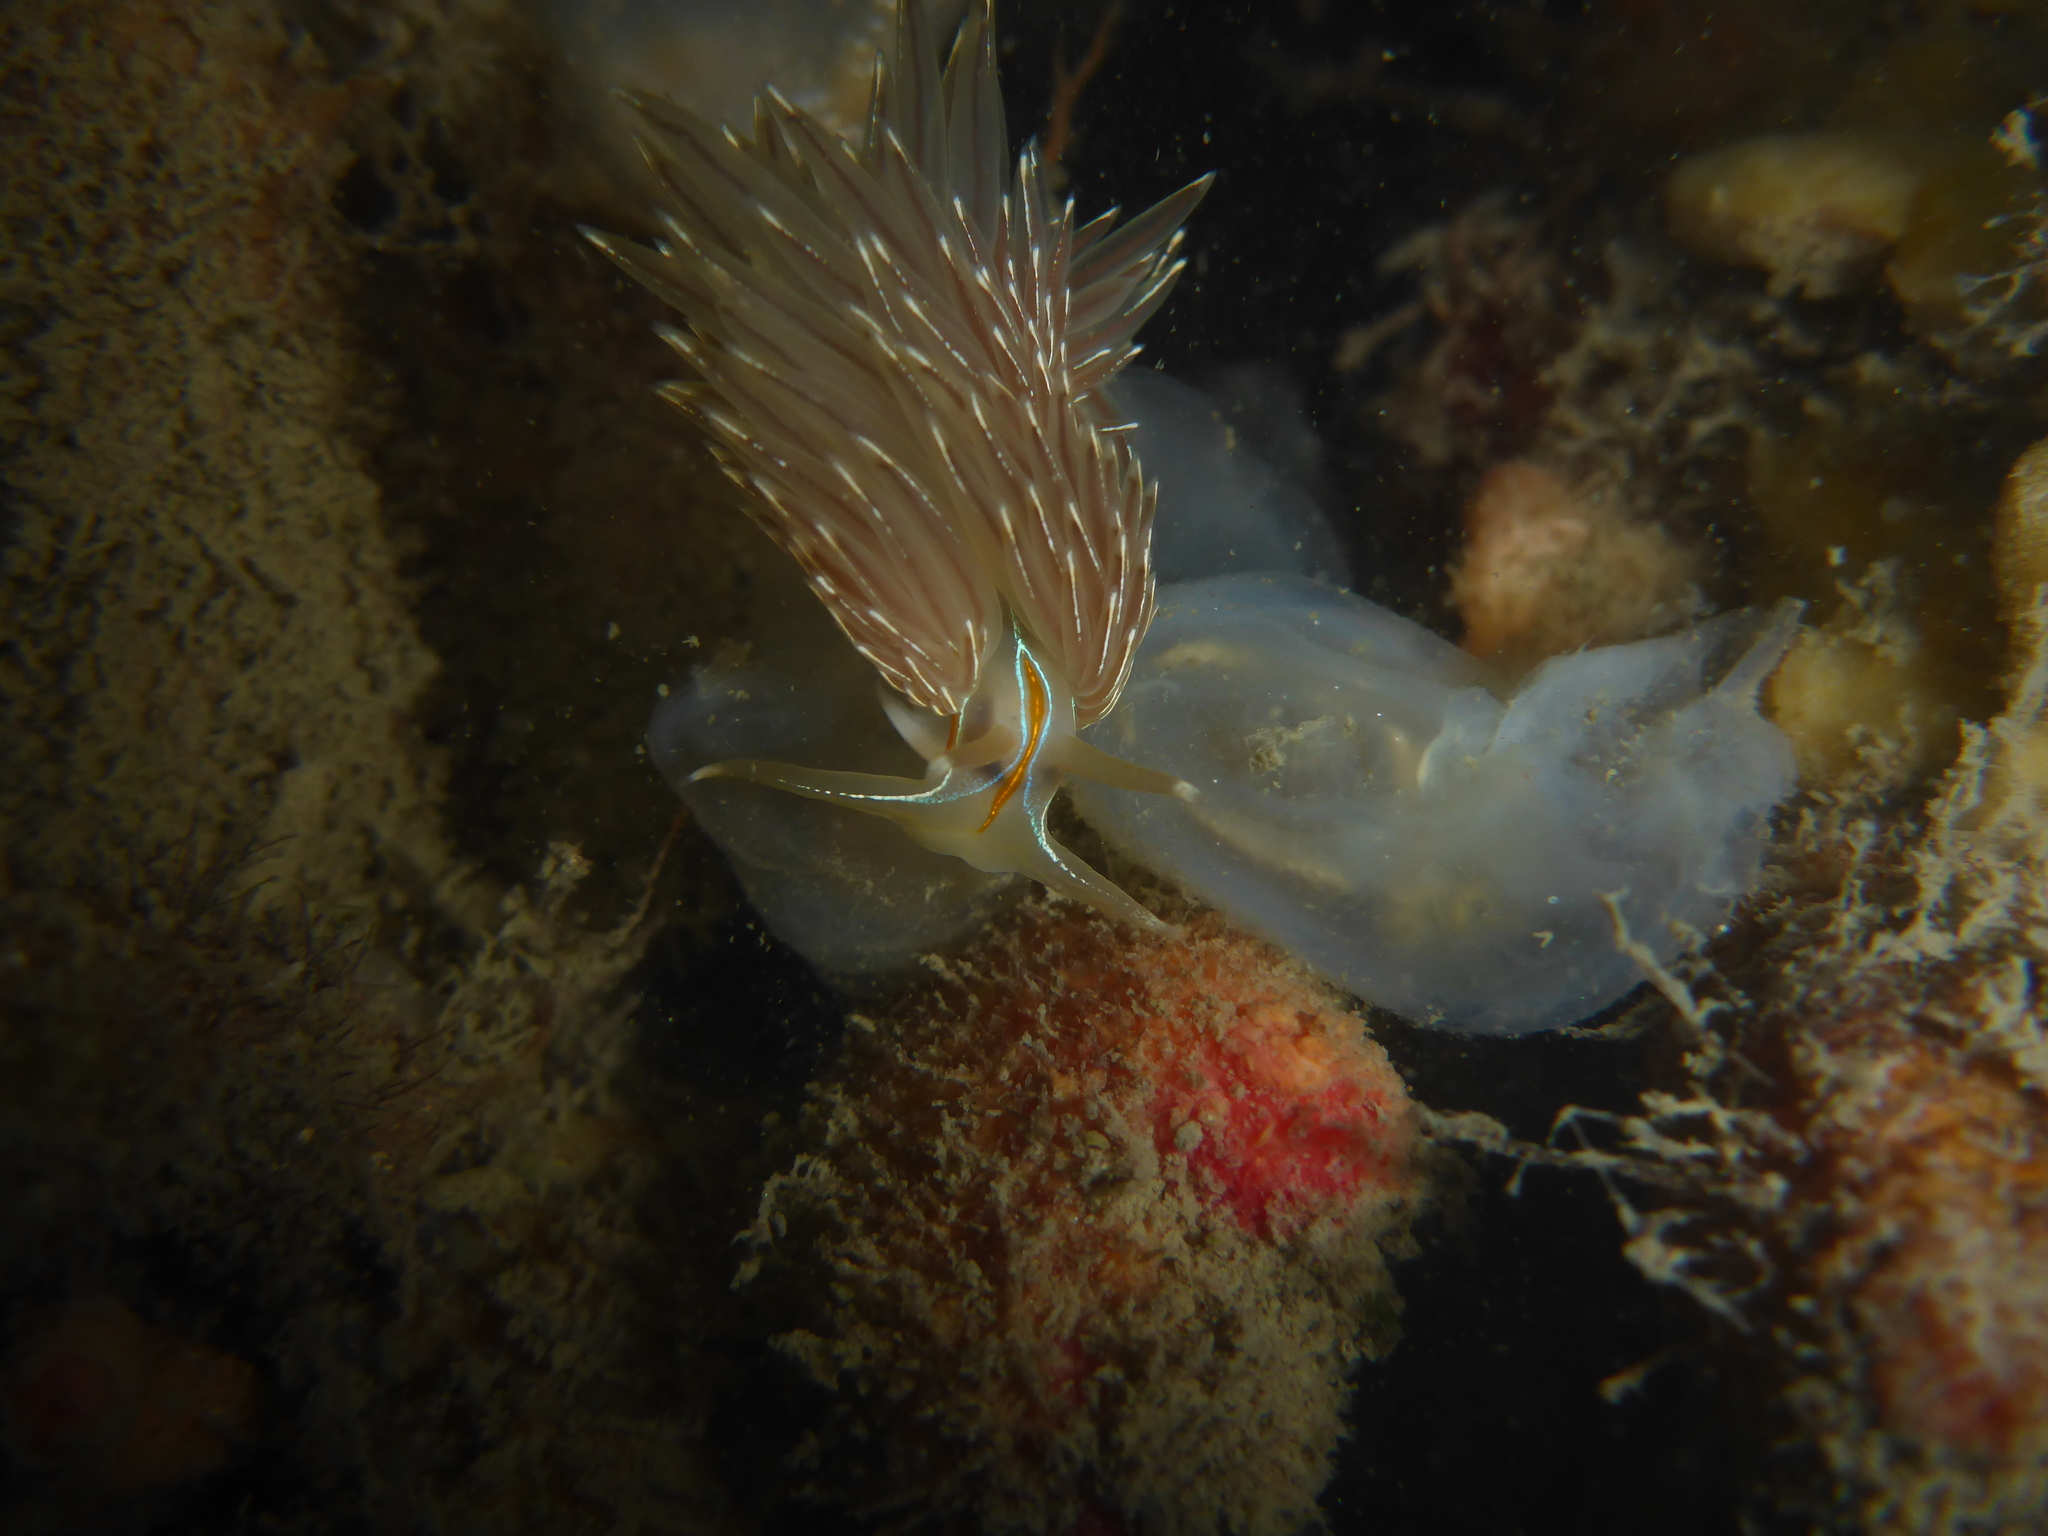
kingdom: Animalia
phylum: Mollusca
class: Gastropoda
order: Nudibranchia
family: Myrrhinidae
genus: Hermissenda
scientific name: Hermissenda crassicornis
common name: Hermissenda
